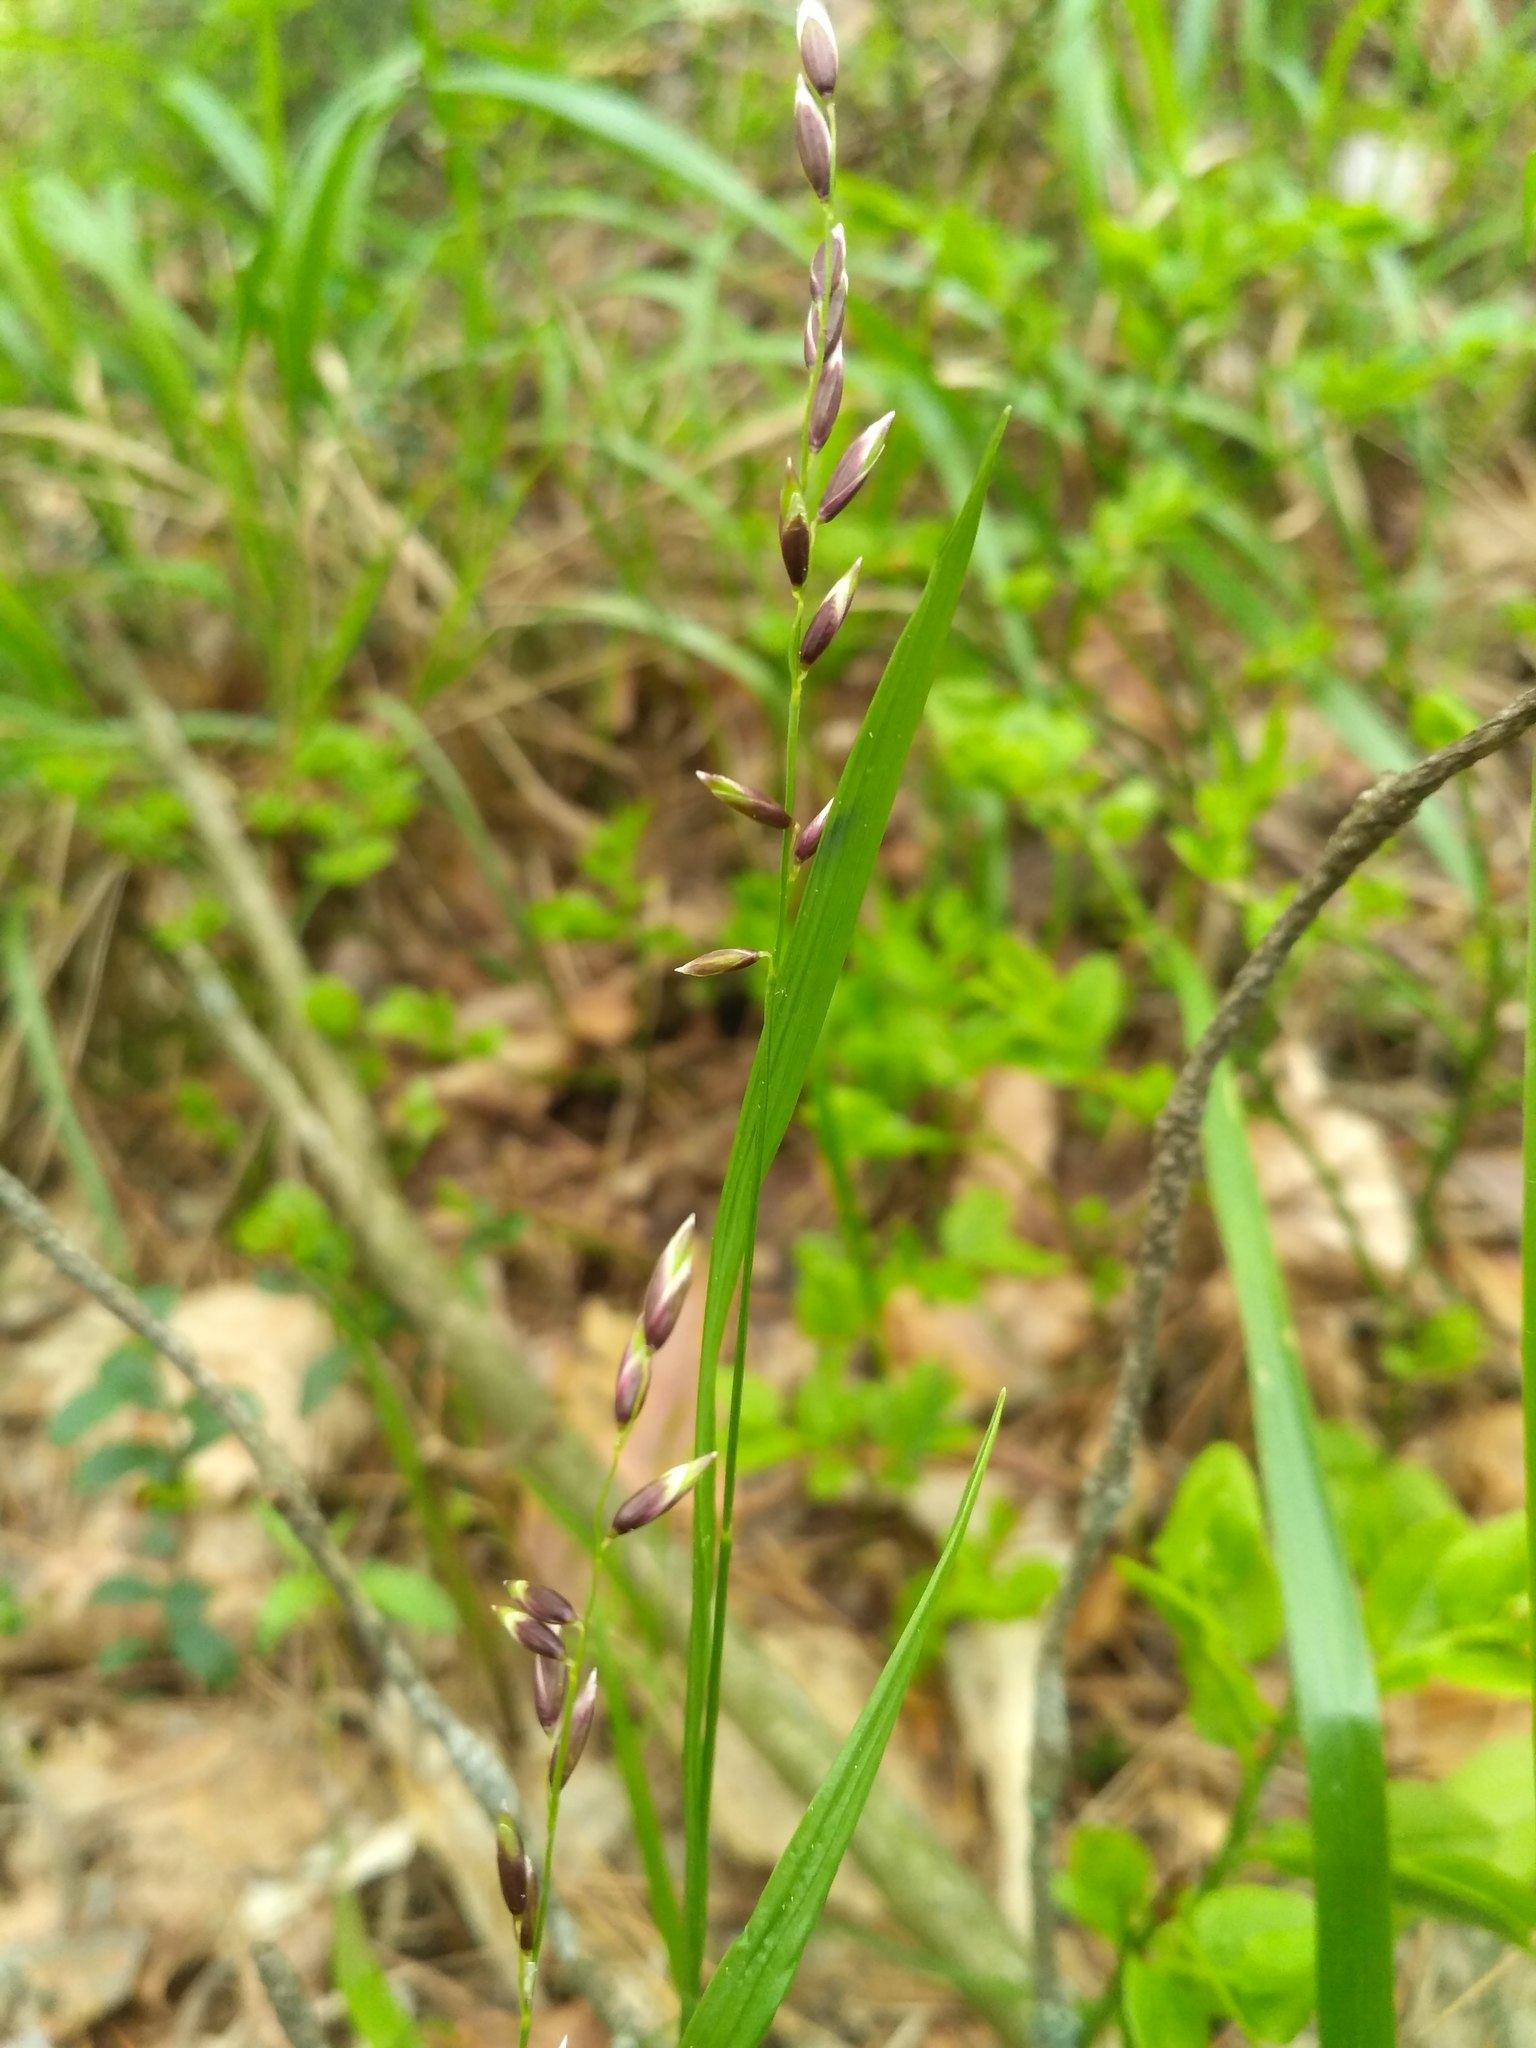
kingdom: Plantae
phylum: Tracheophyta
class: Liliopsida
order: Poales
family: Poaceae
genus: Melica
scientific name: Melica nutans
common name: Mountain melick
